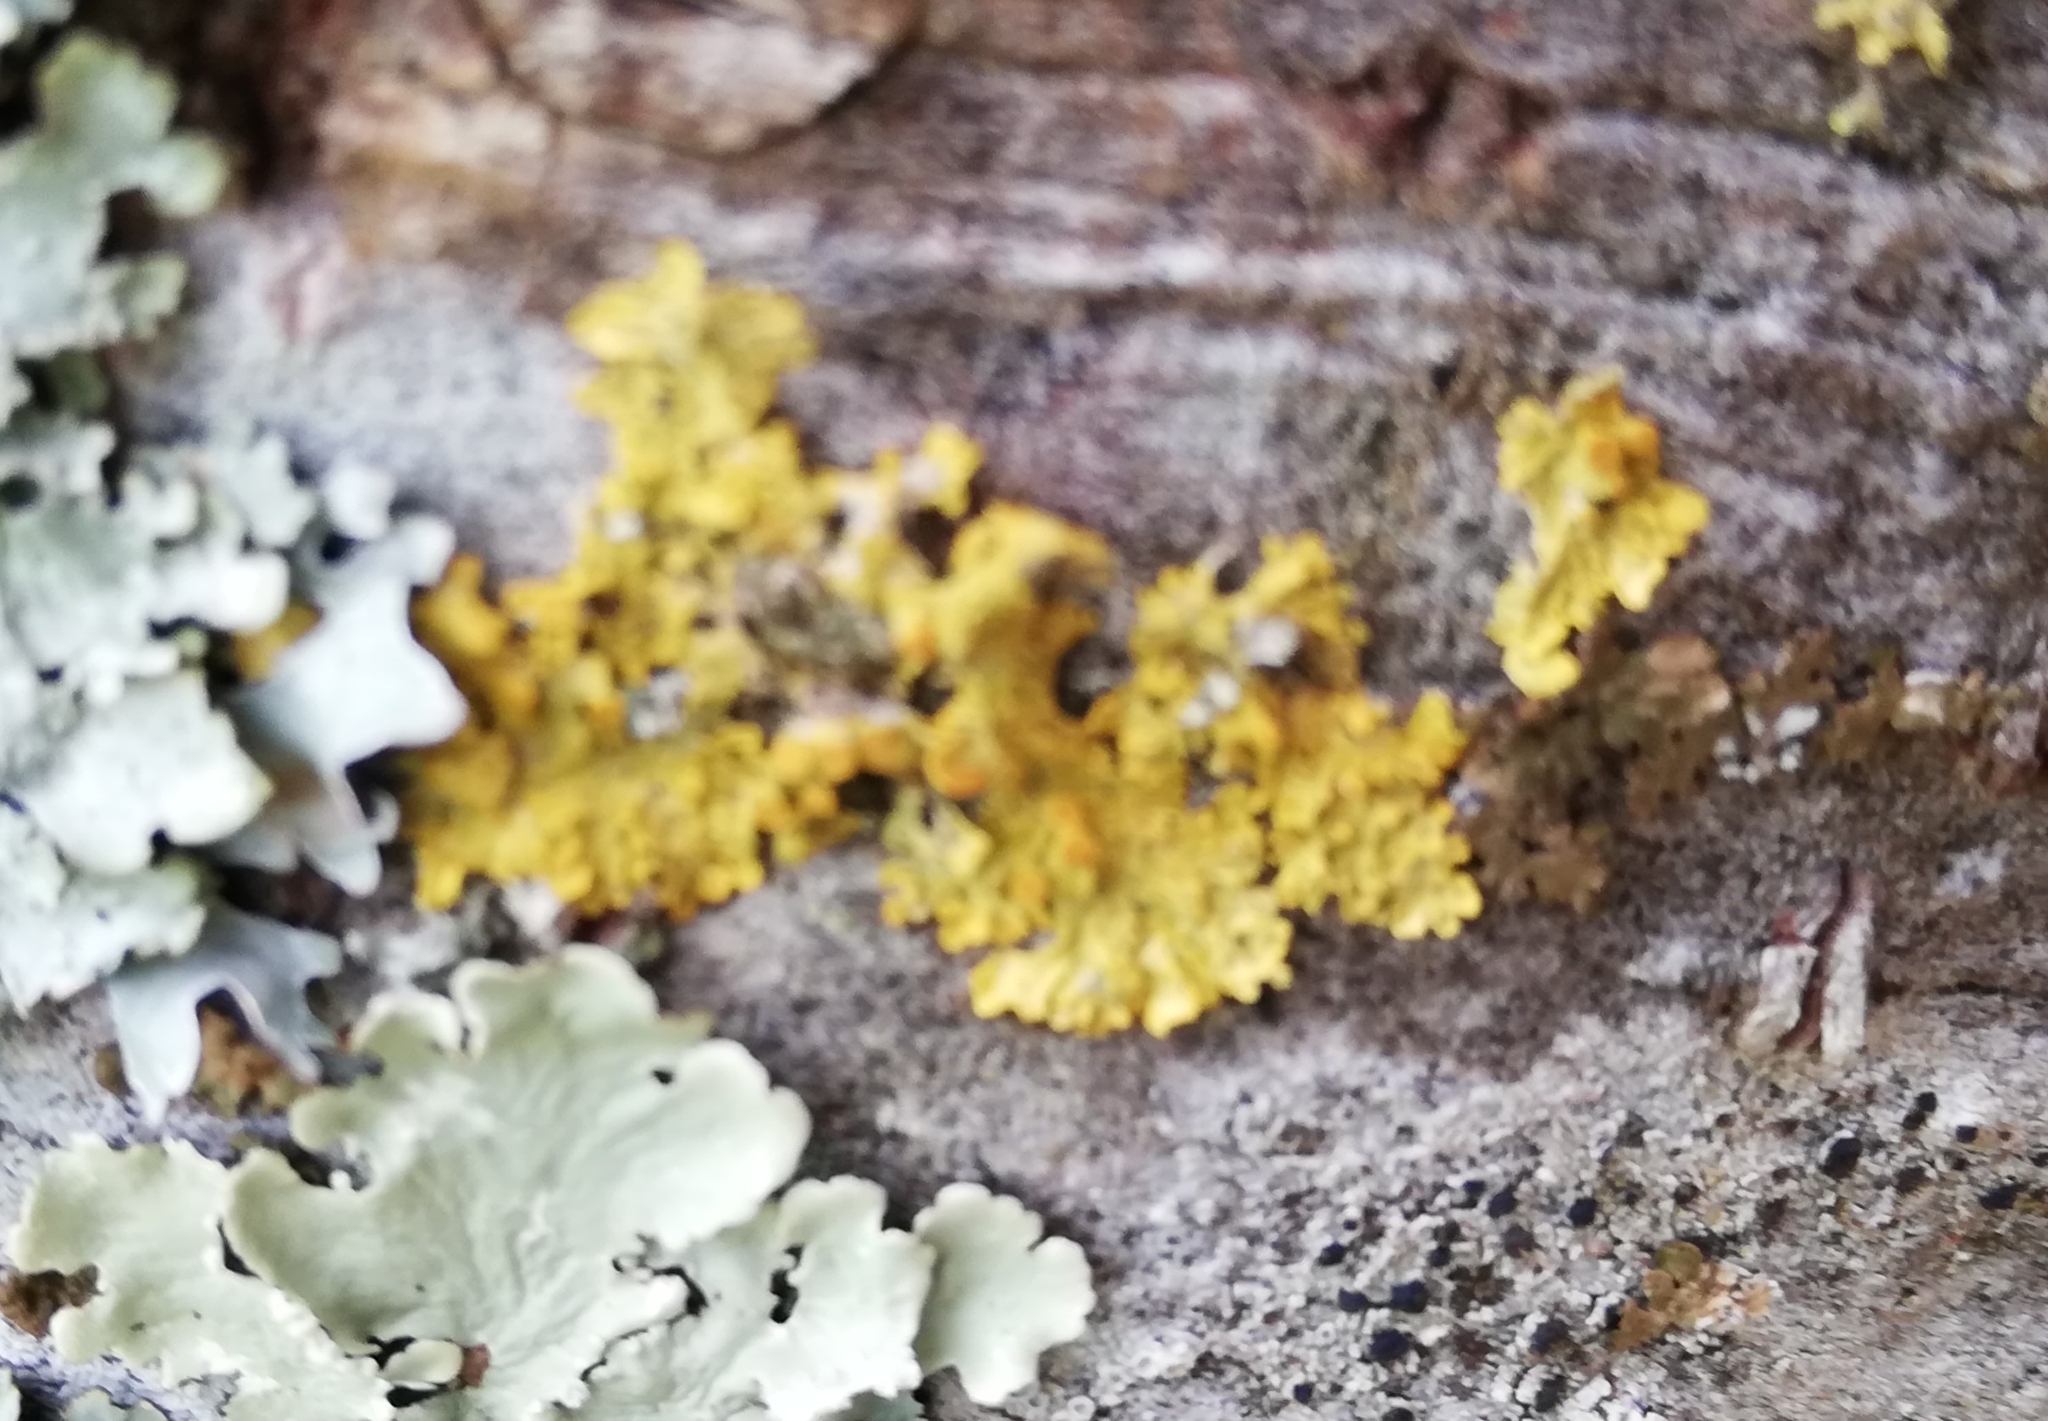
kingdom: Fungi
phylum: Ascomycota
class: Lecanoromycetes
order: Teloschistales
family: Teloschistaceae
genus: Xanthoria
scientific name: Xanthoria parietina
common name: Common orange lichen
